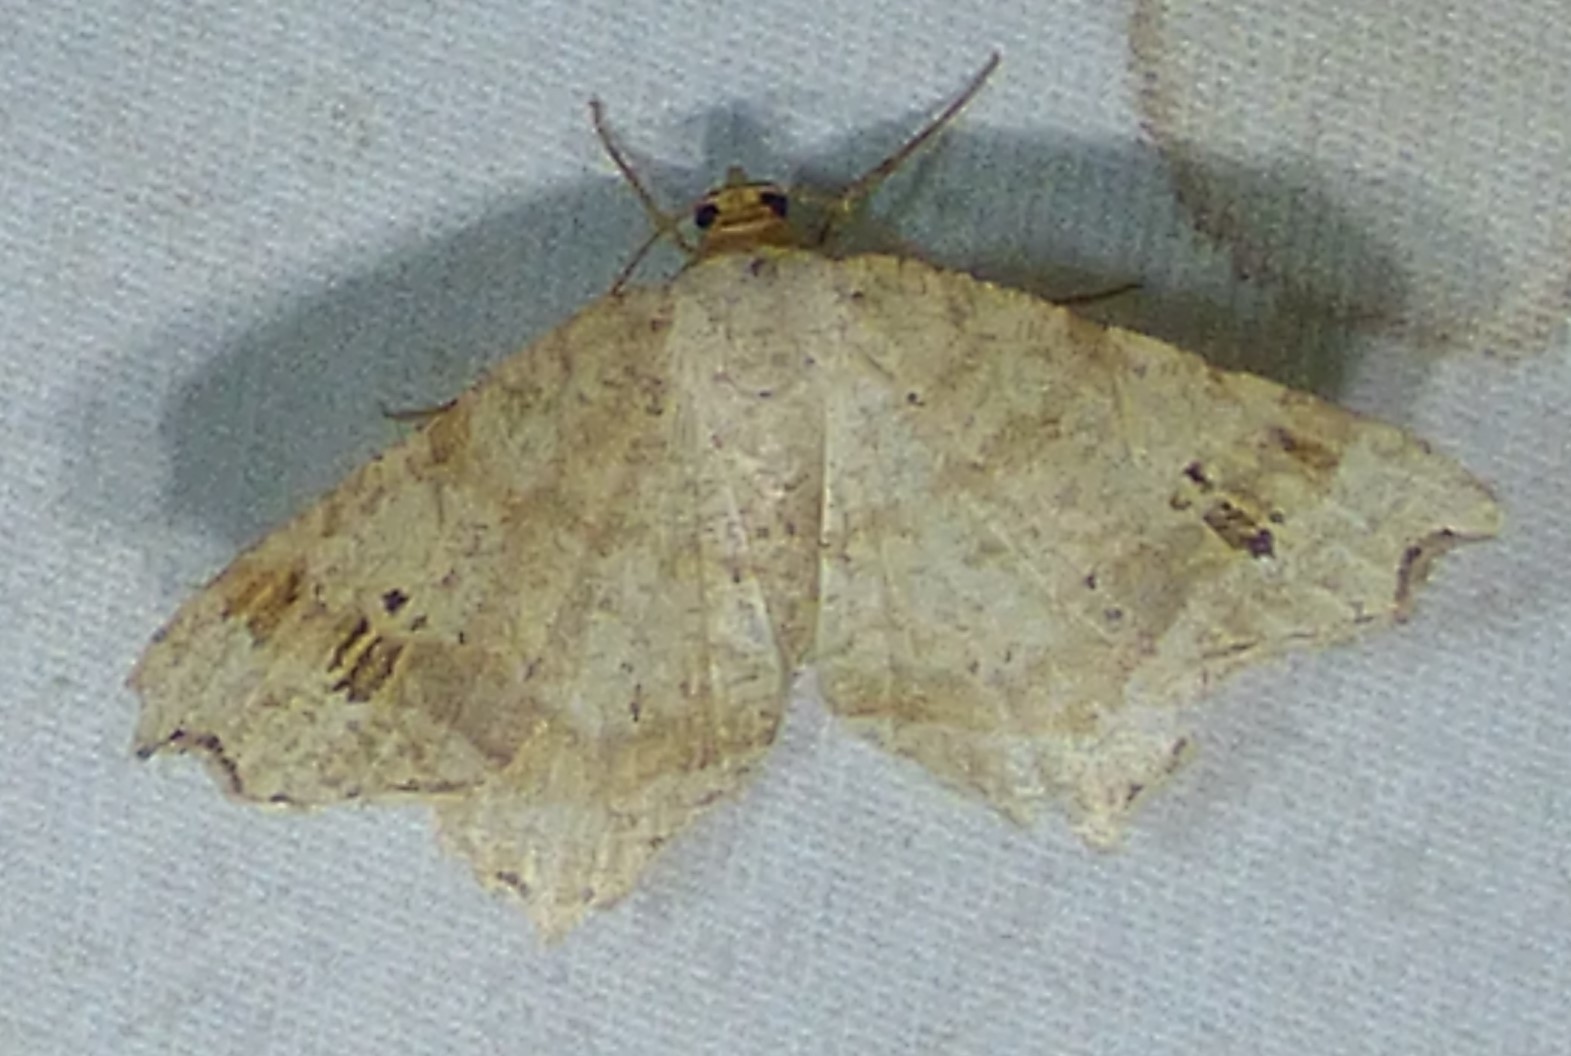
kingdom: Animalia
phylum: Arthropoda
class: Insecta
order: Lepidoptera
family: Geometridae
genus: Macaria
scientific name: Macaria aemulataria
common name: Common angle
